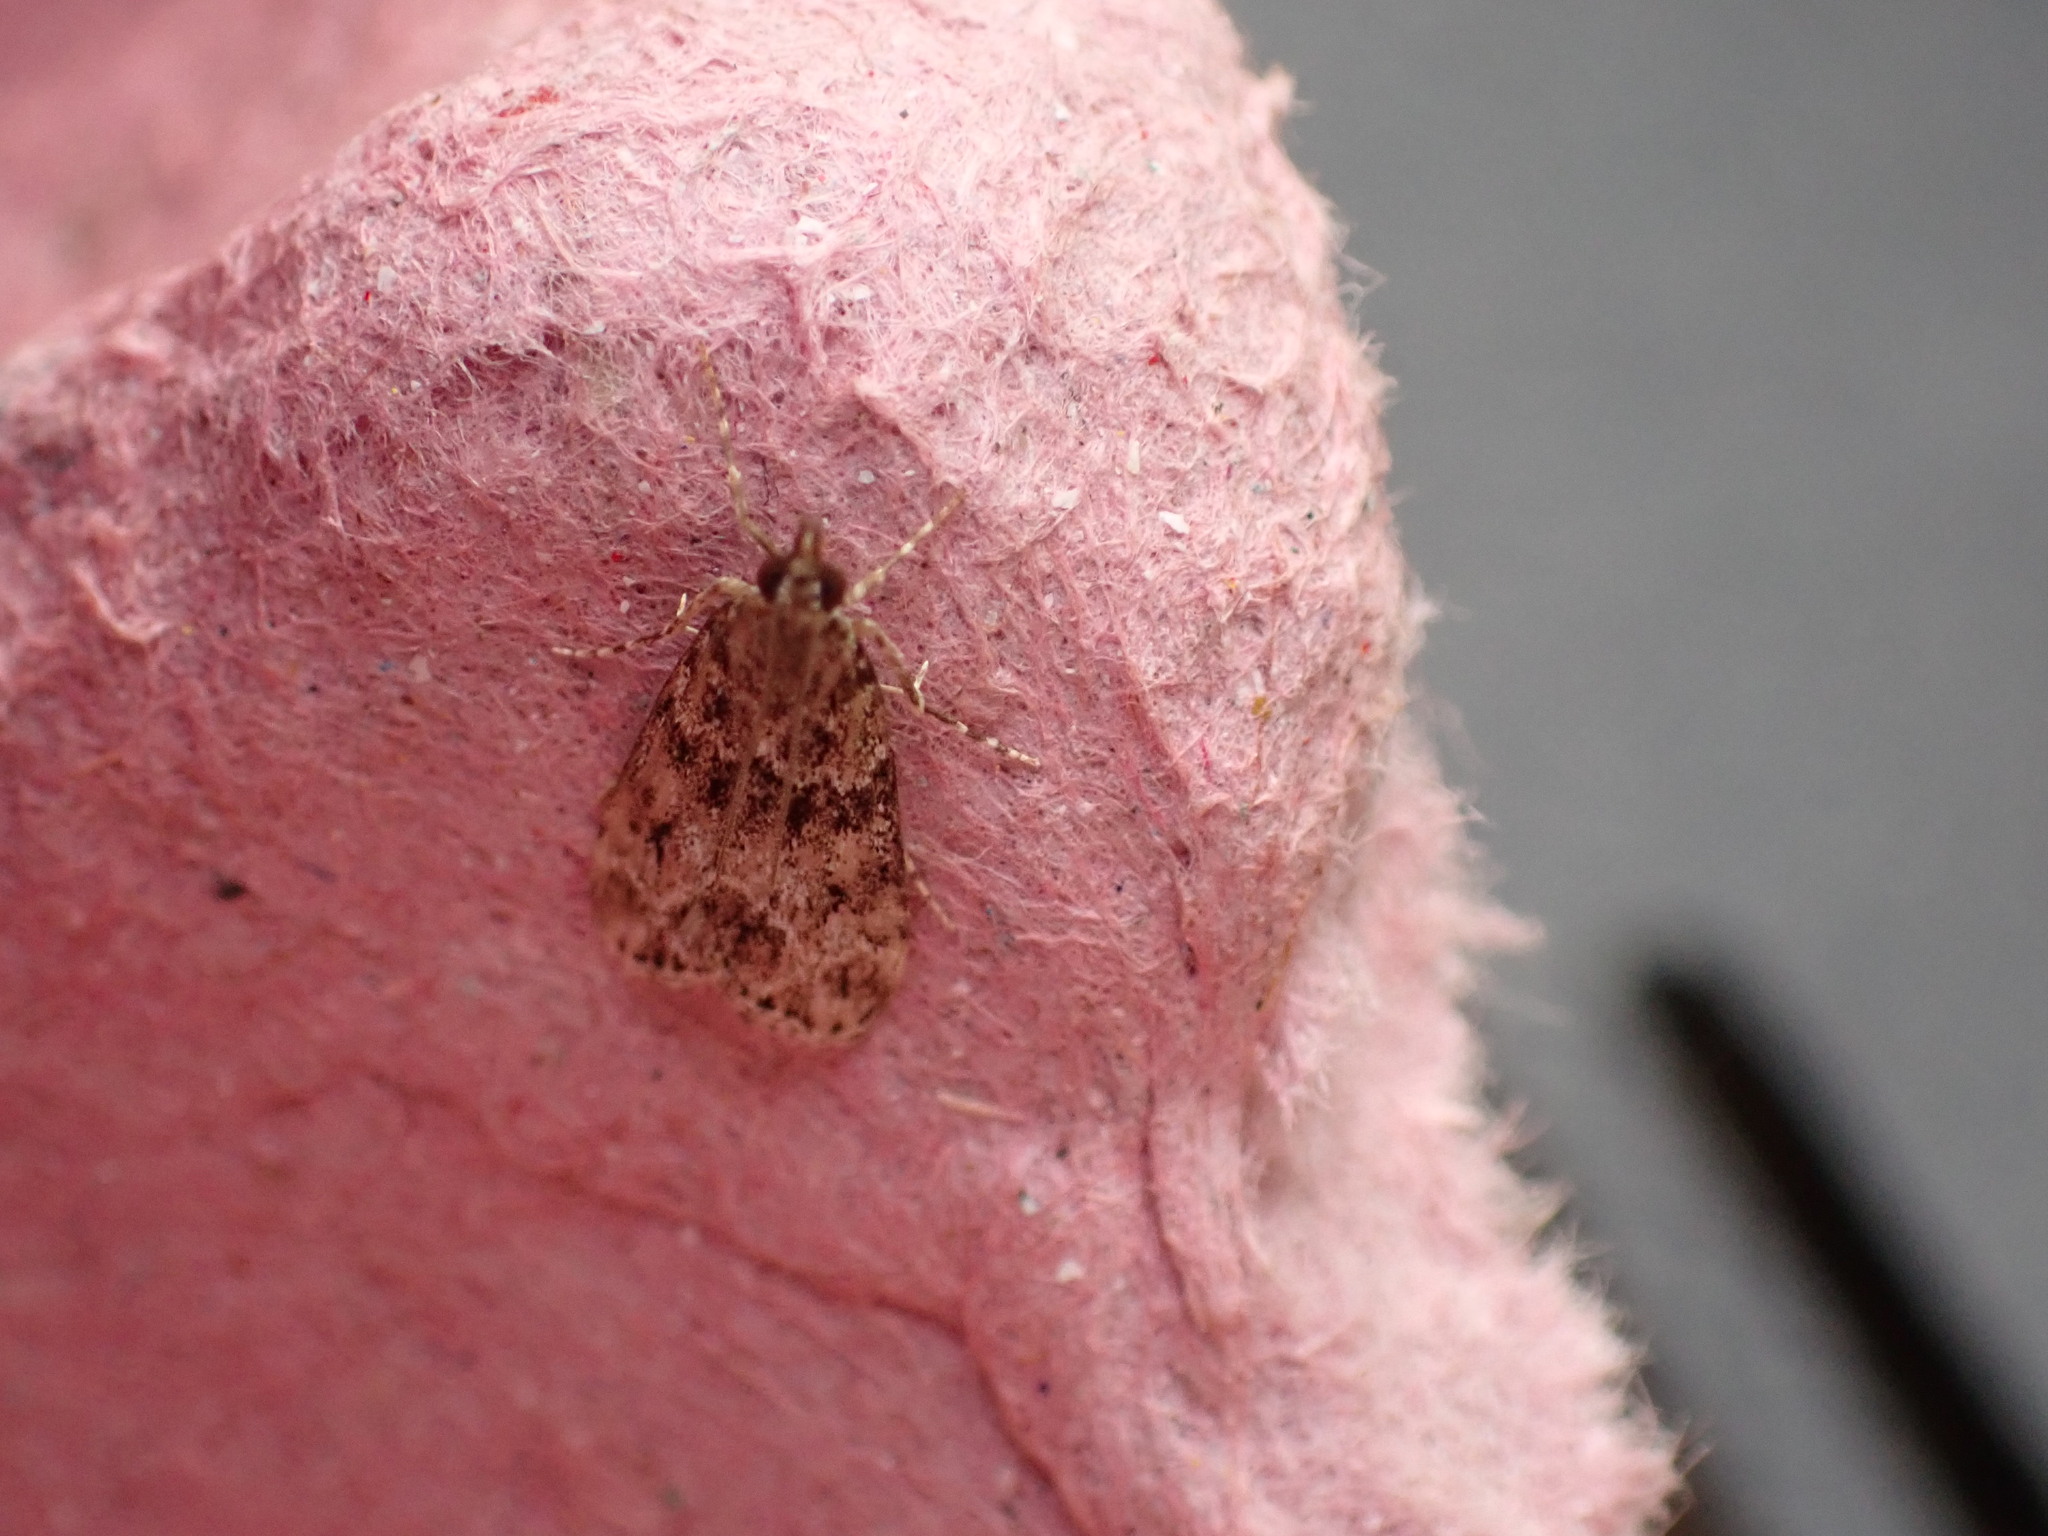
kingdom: Animalia
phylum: Arthropoda
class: Insecta
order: Lepidoptera
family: Crambidae
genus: Eudonia
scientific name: Eudonia mercurella
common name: Small grey
